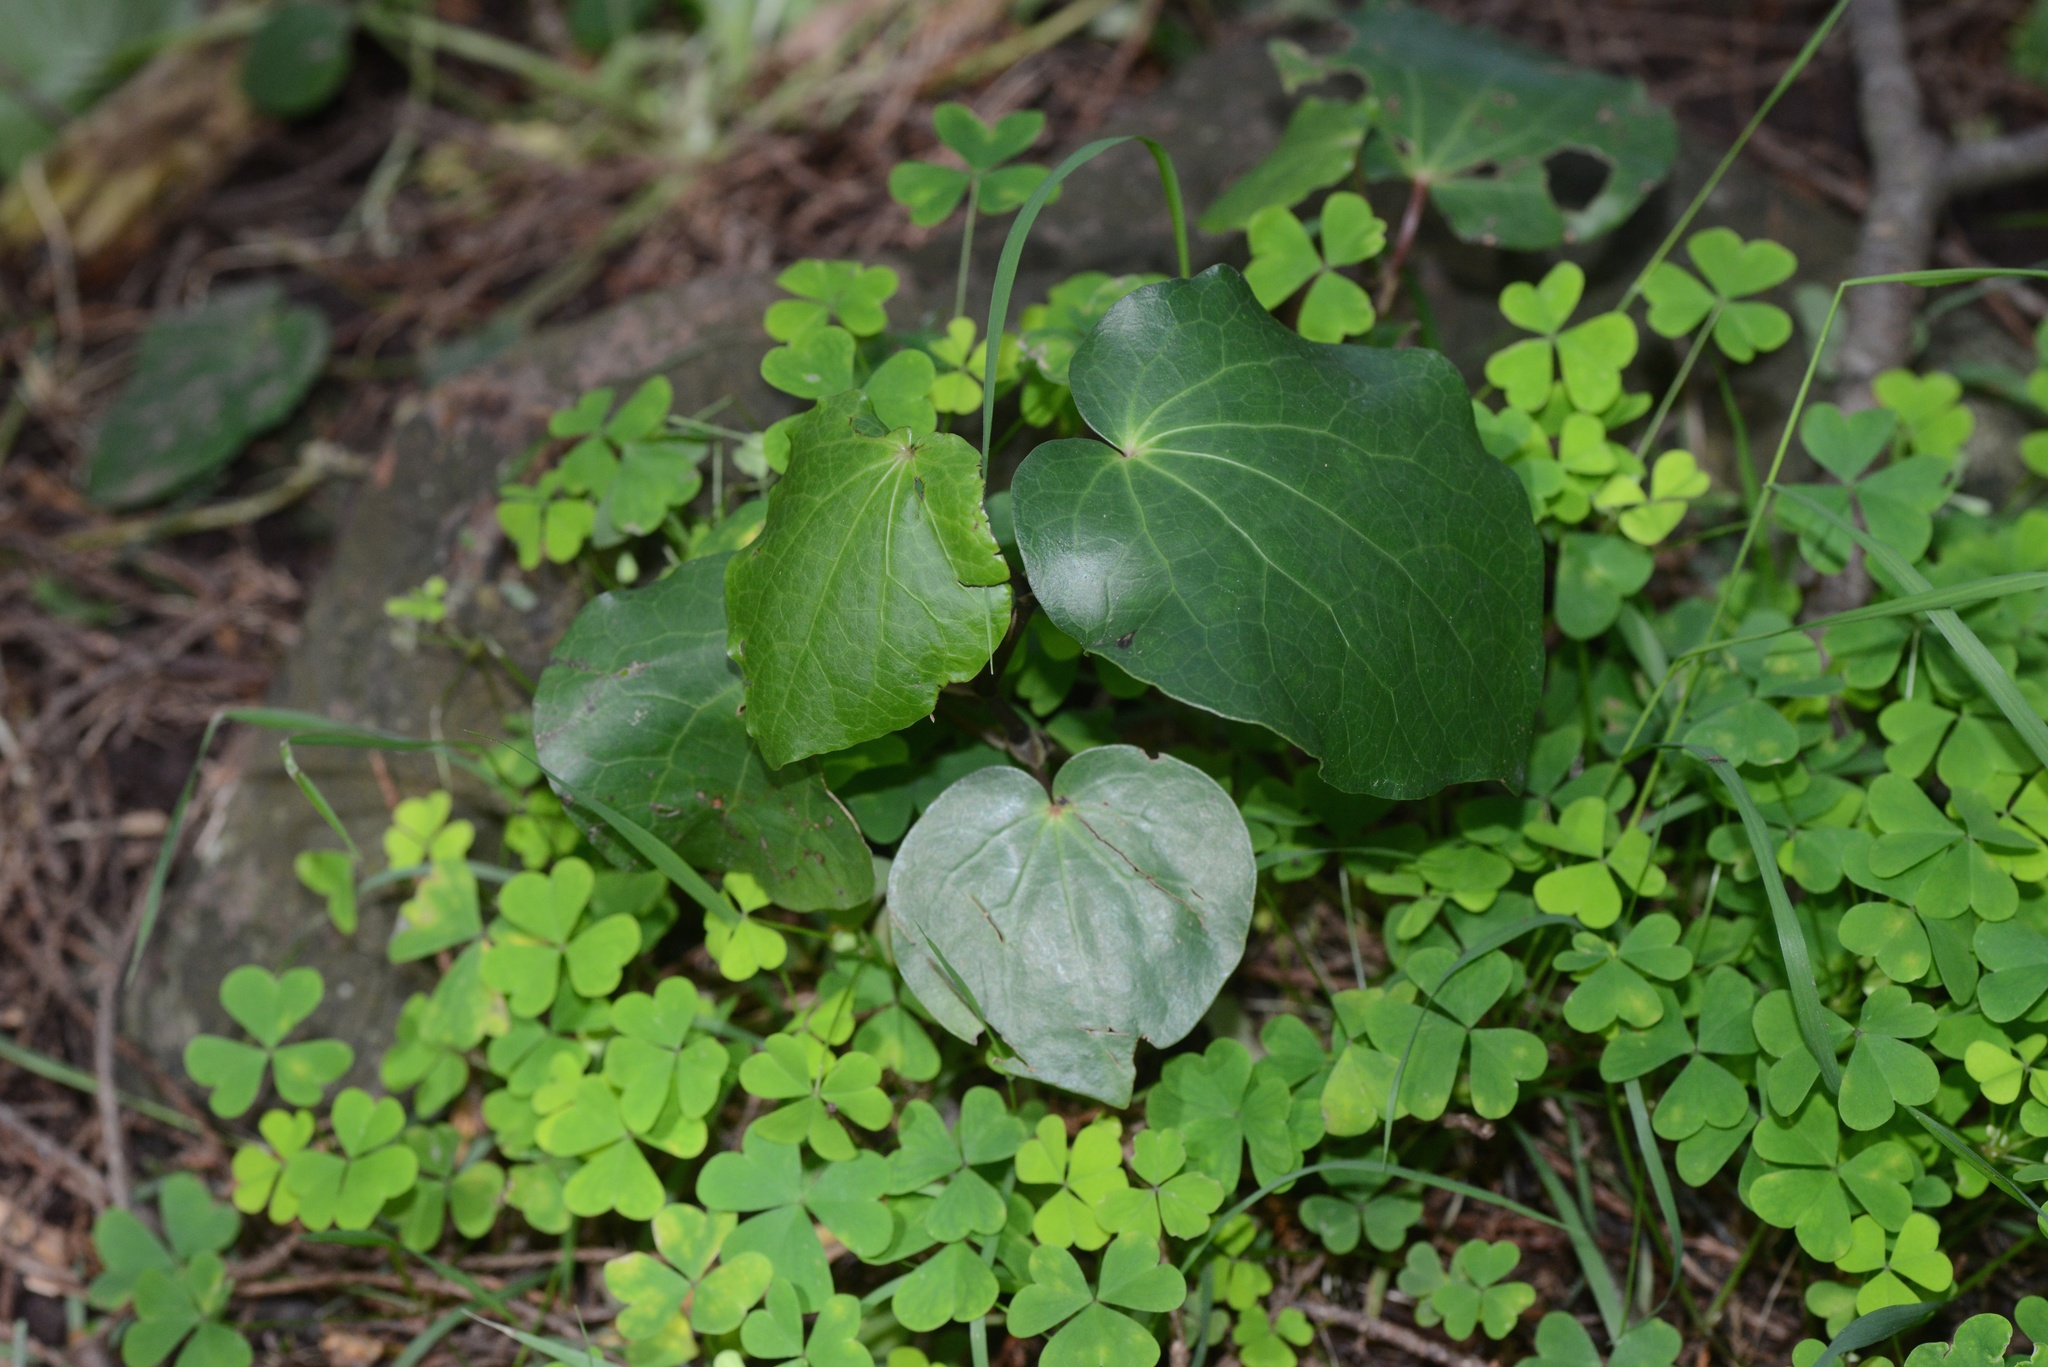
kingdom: Plantae
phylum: Tracheophyta
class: Magnoliopsida
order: Piperales
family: Piperaceae
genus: Macropiper
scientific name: Macropiper excelsum
